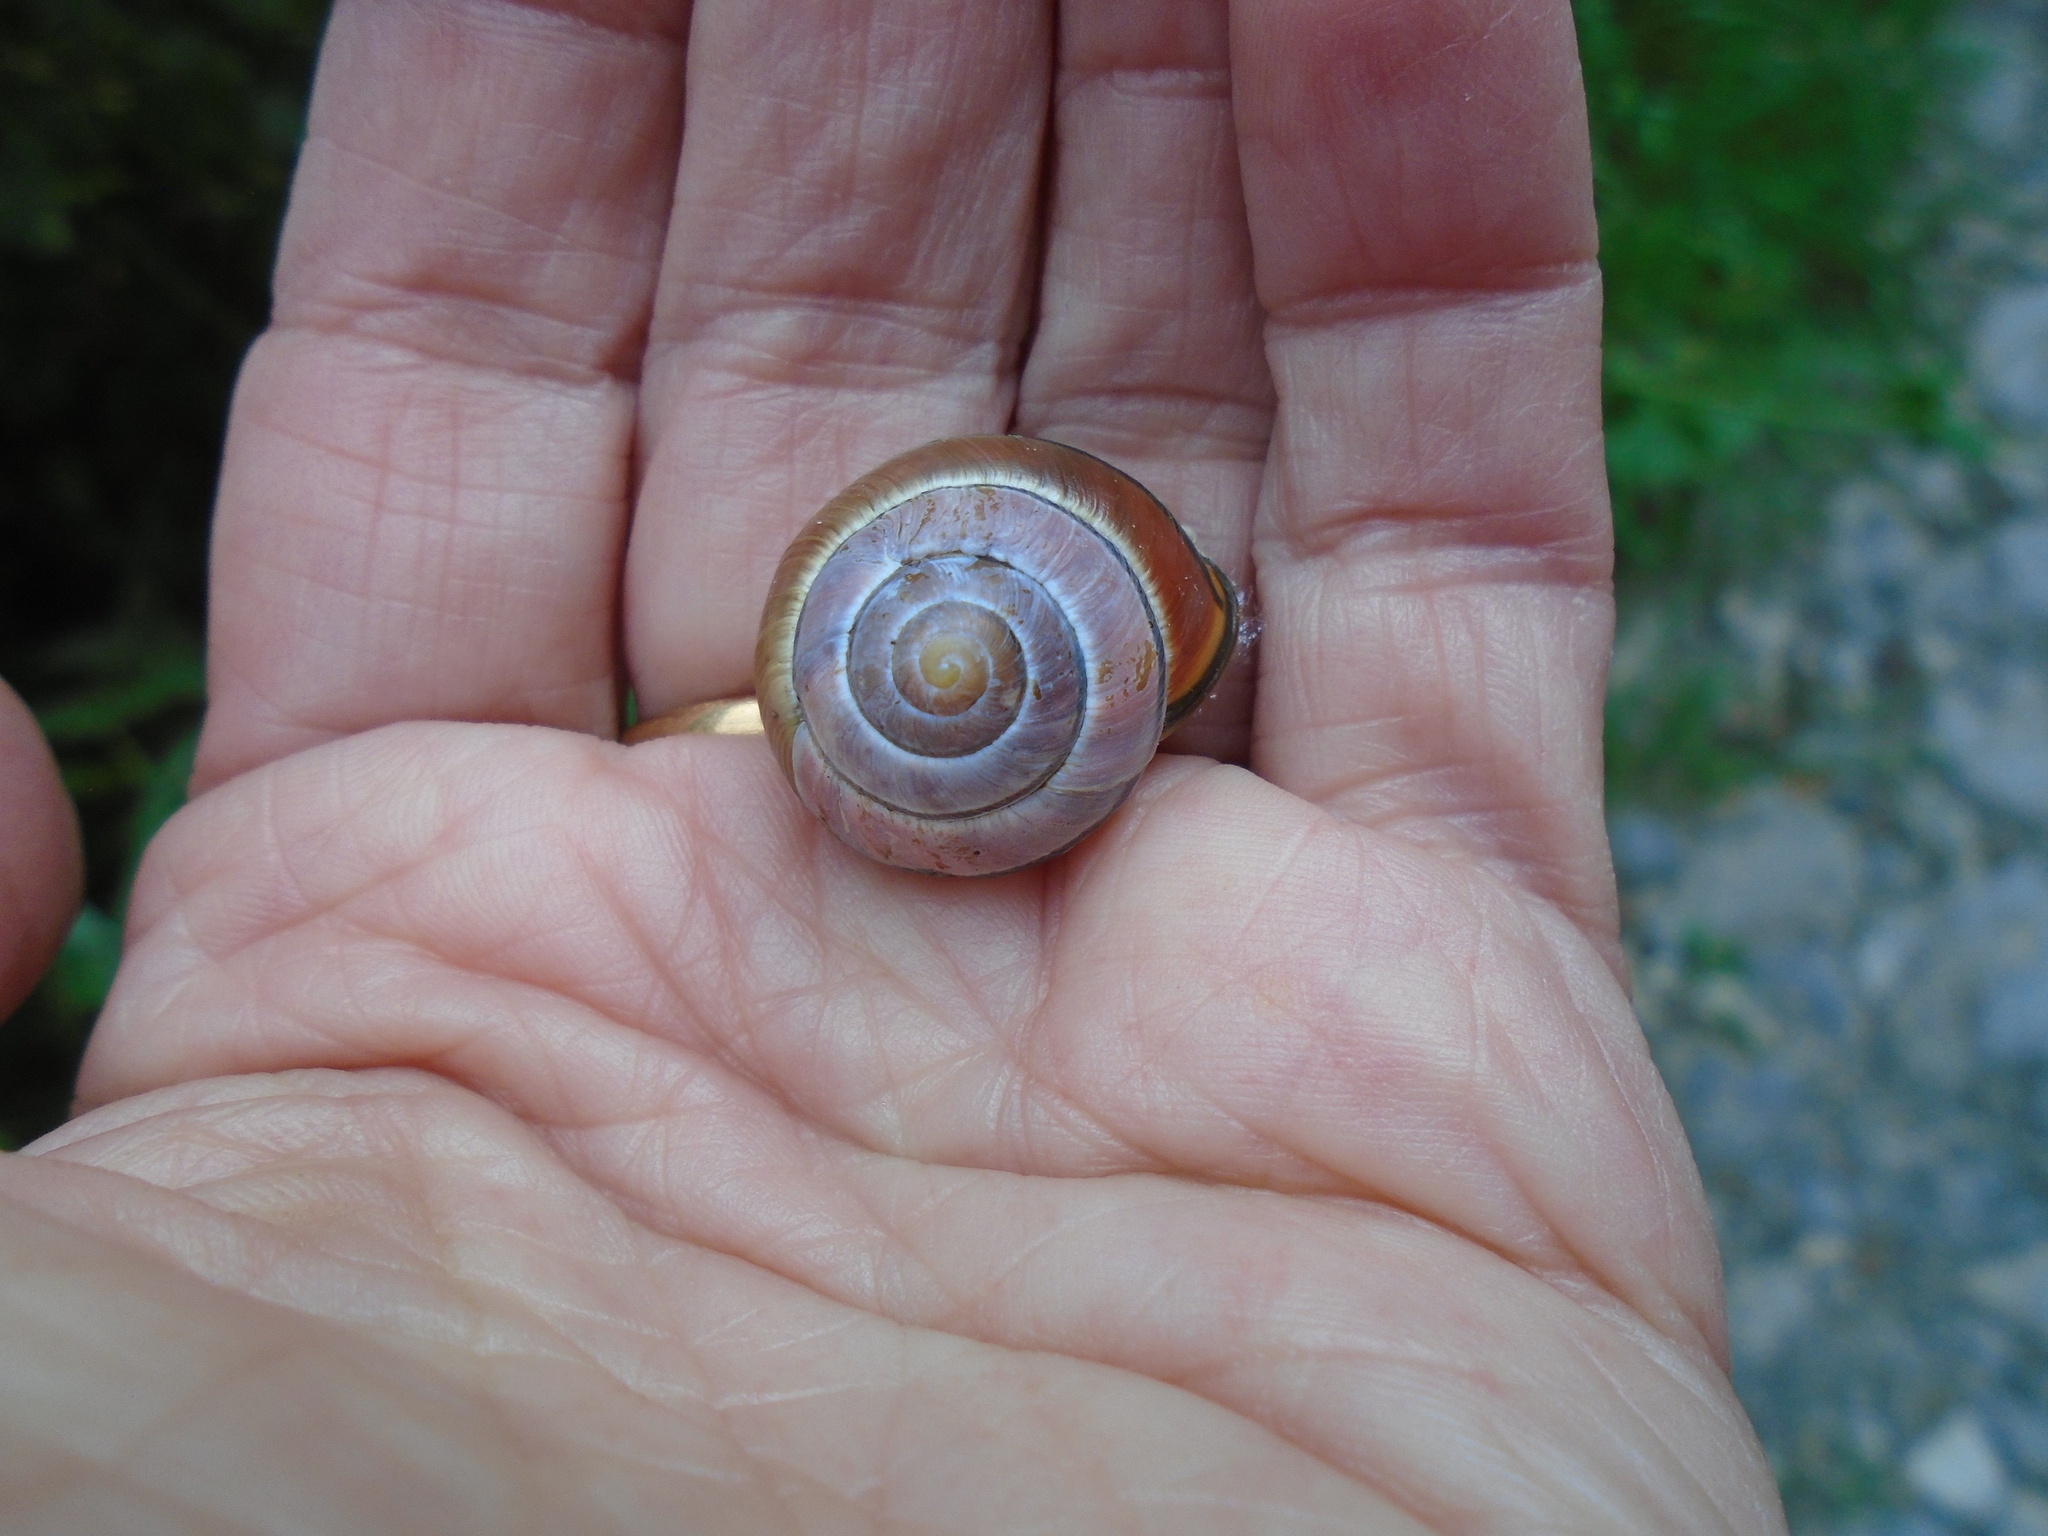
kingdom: Animalia
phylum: Mollusca
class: Gastropoda
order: Stylommatophora
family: Helicidae
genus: Cepaea
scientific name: Cepaea nemoralis
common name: Grovesnail
